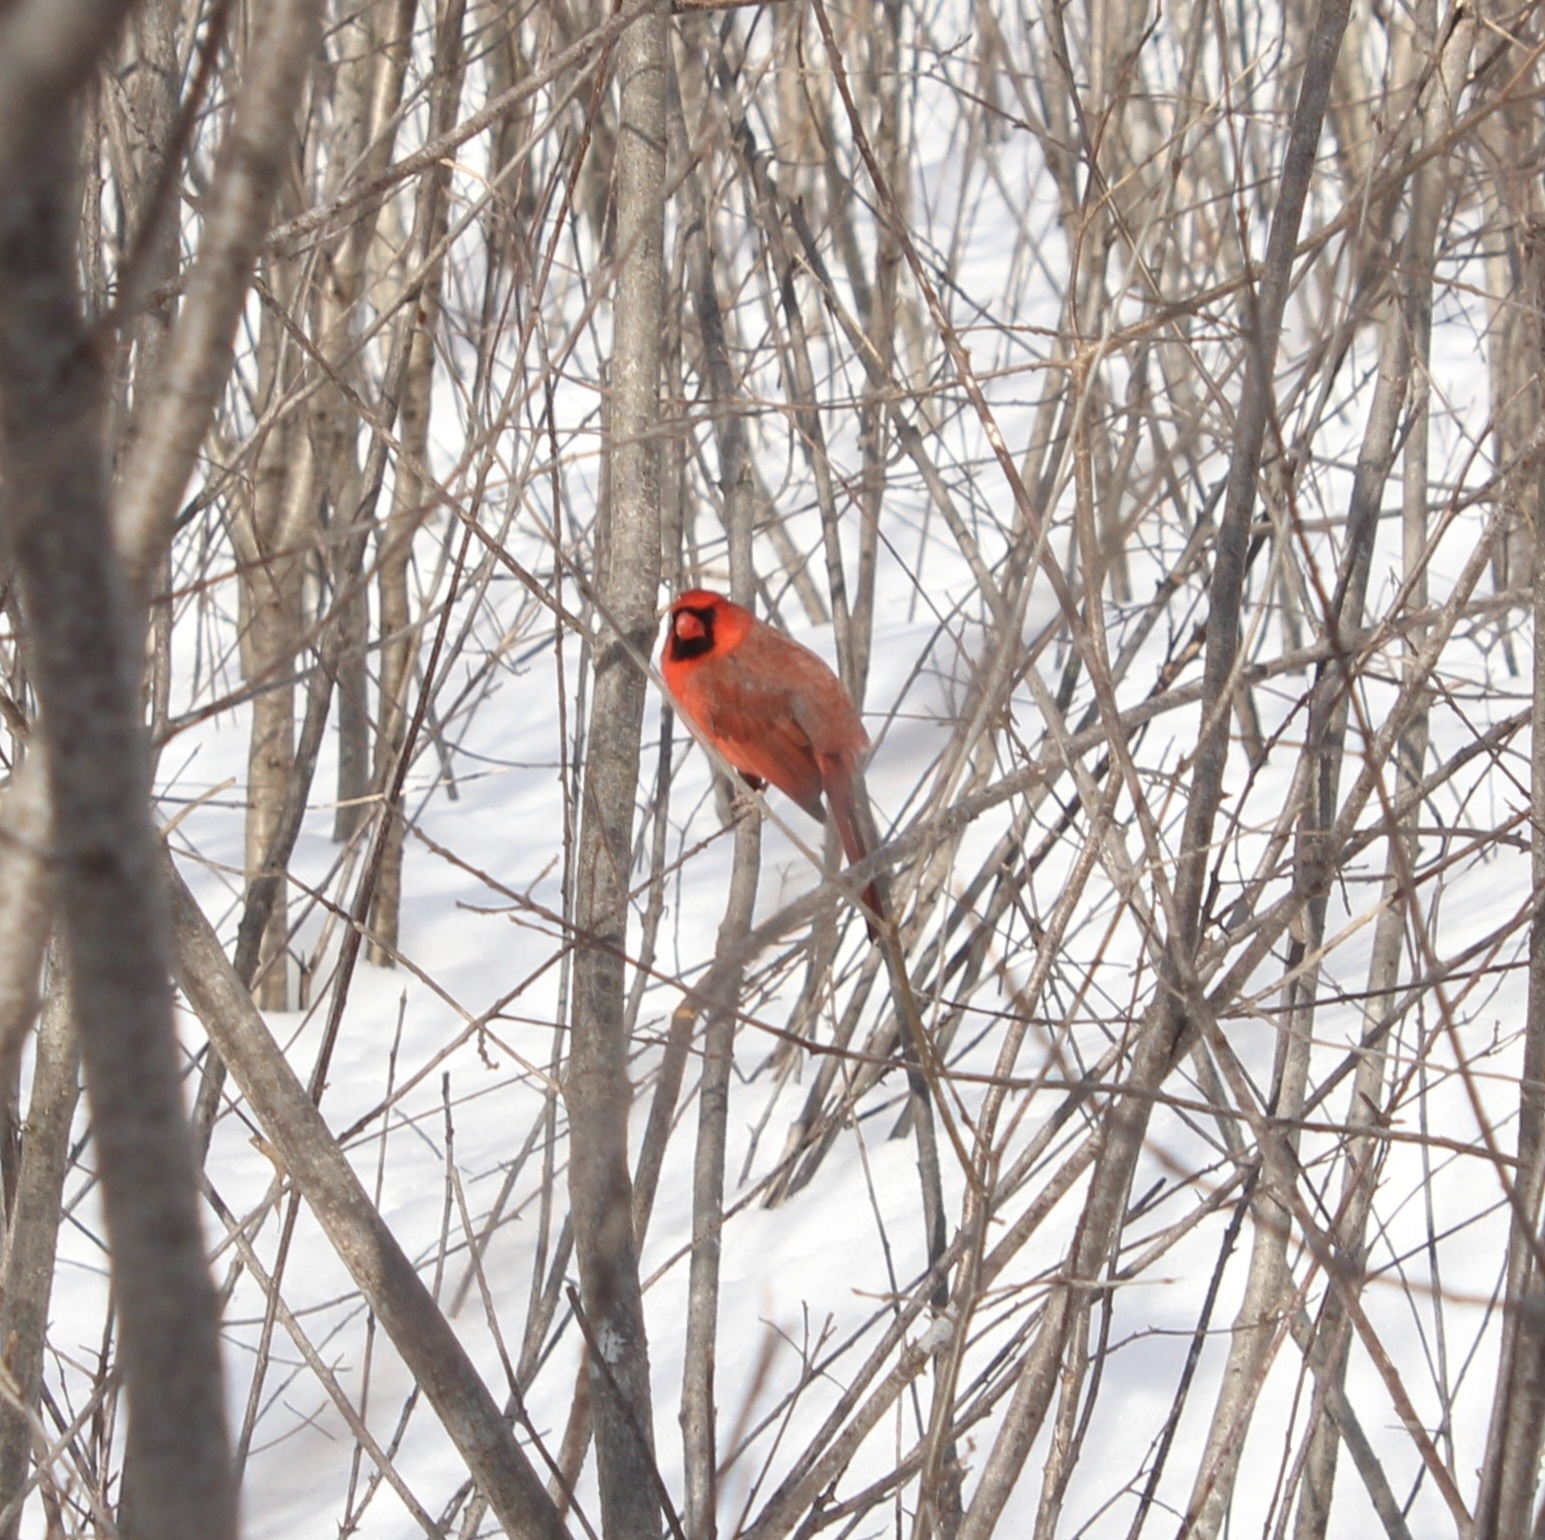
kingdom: Animalia
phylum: Chordata
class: Aves
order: Passeriformes
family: Cardinalidae
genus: Cardinalis
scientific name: Cardinalis cardinalis
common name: Northern cardinal
